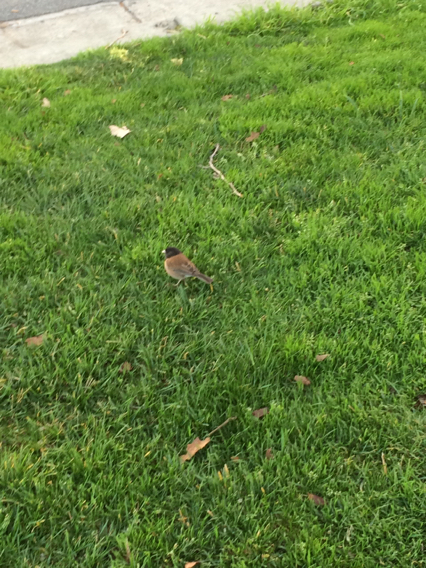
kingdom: Animalia
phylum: Chordata
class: Aves
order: Passeriformes
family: Passerellidae
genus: Junco
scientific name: Junco hyemalis
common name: Dark-eyed junco
